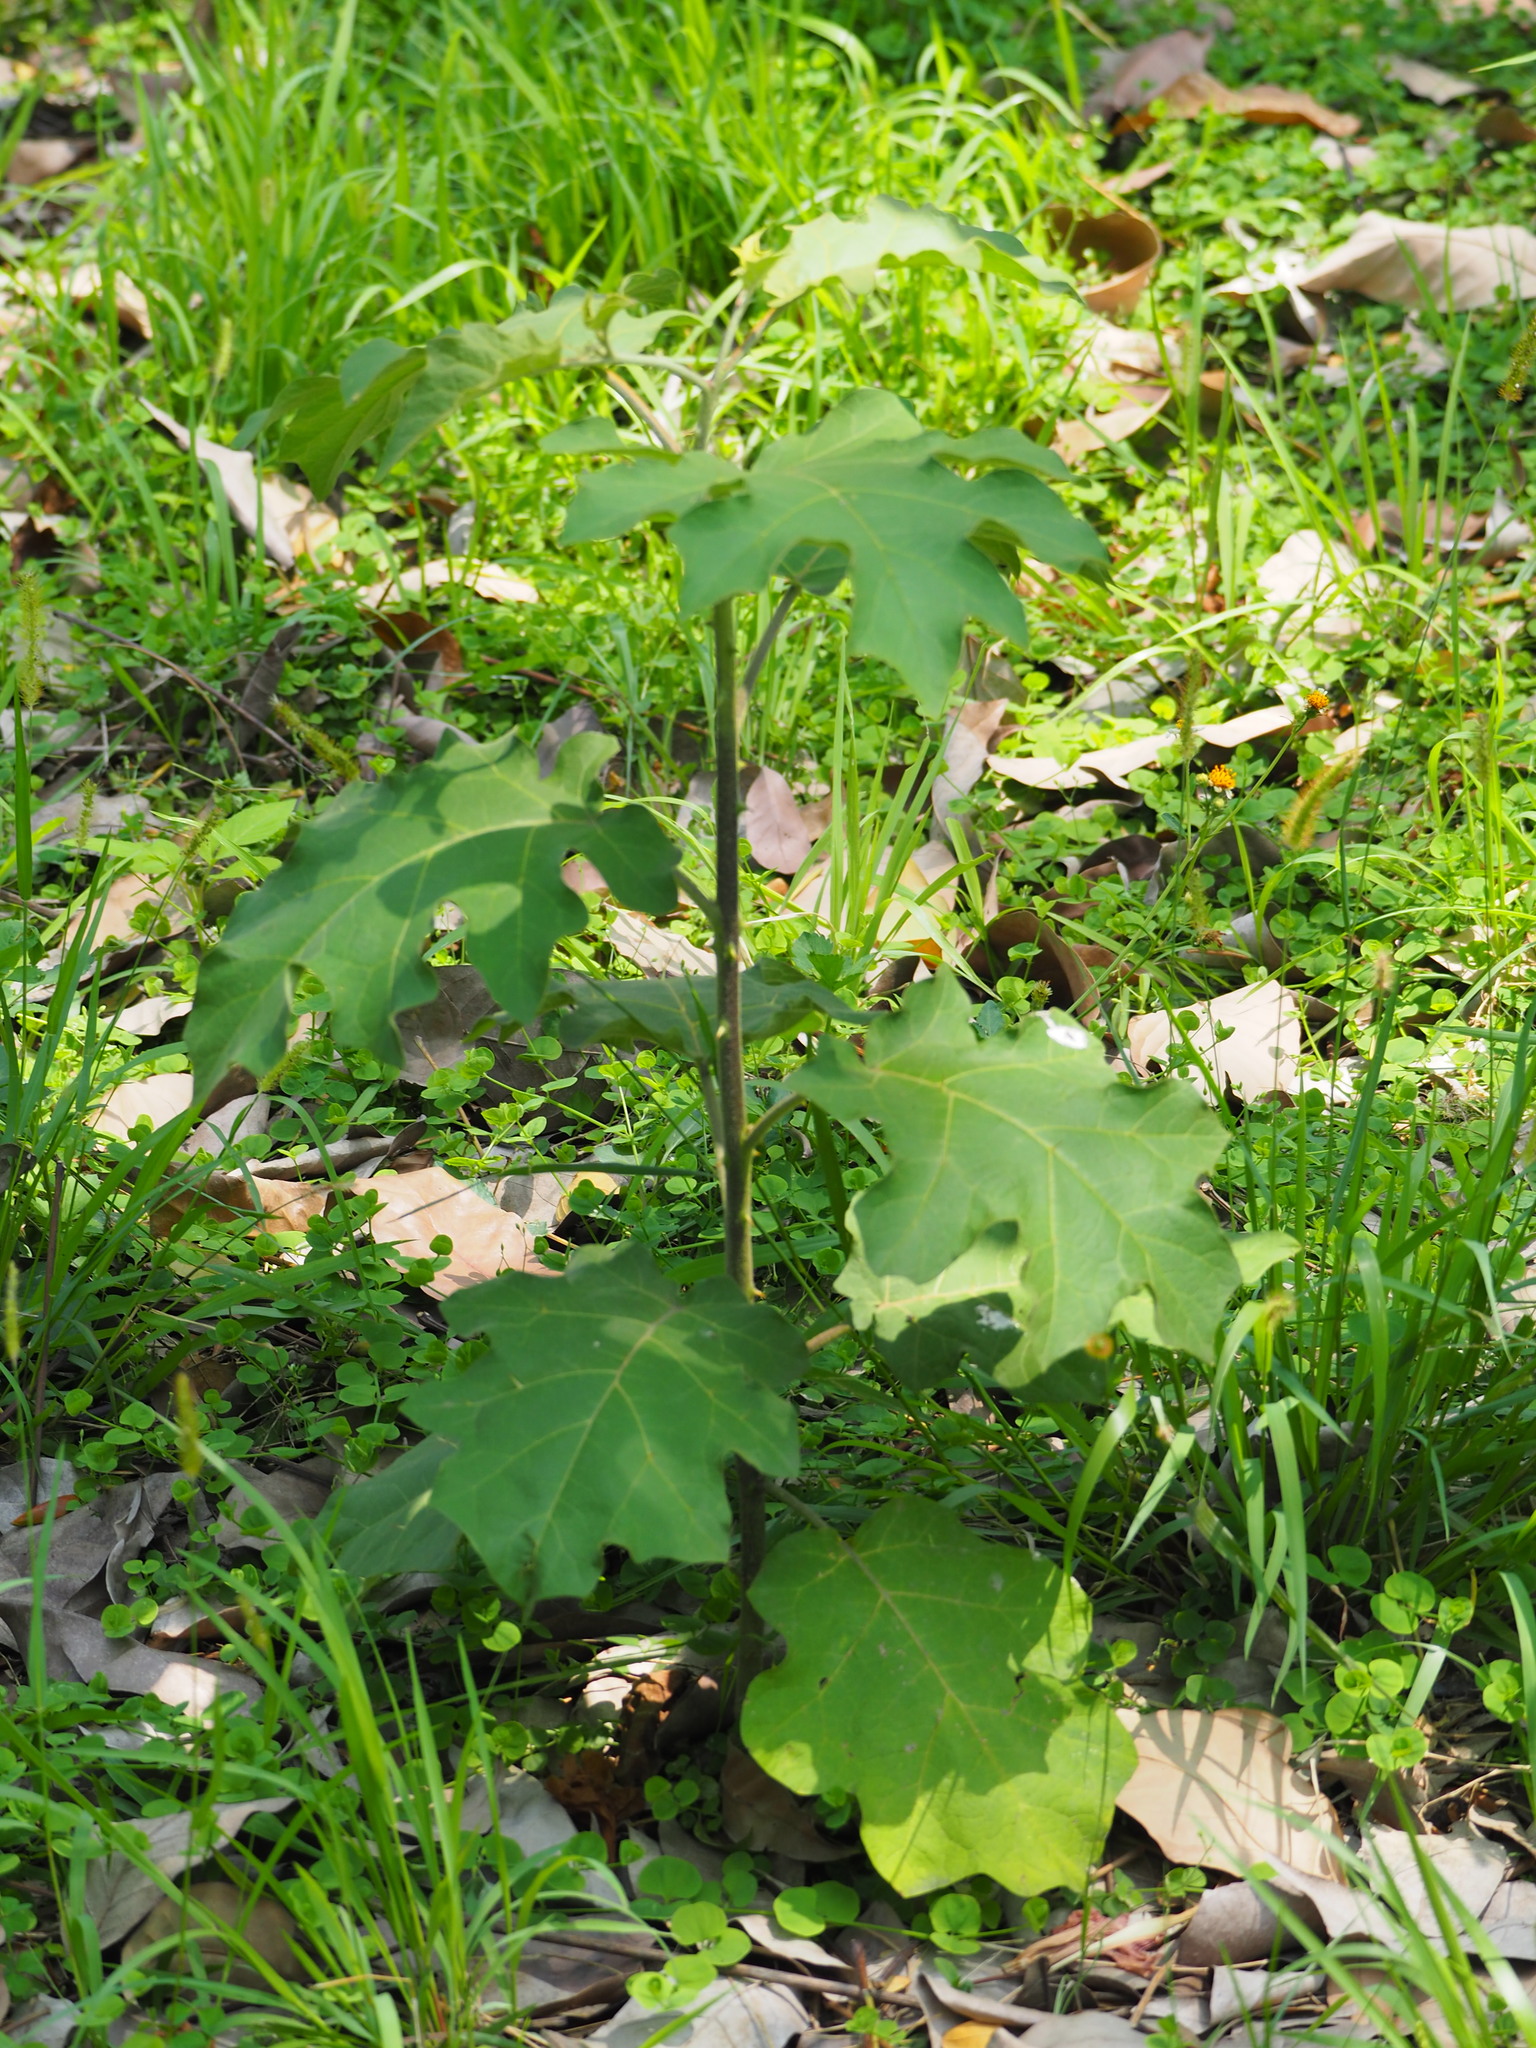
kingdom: Plantae
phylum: Tracheophyta
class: Magnoliopsida
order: Solanales
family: Solanaceae
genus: Solanum
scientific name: Solanum torvum
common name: Turkey berry
